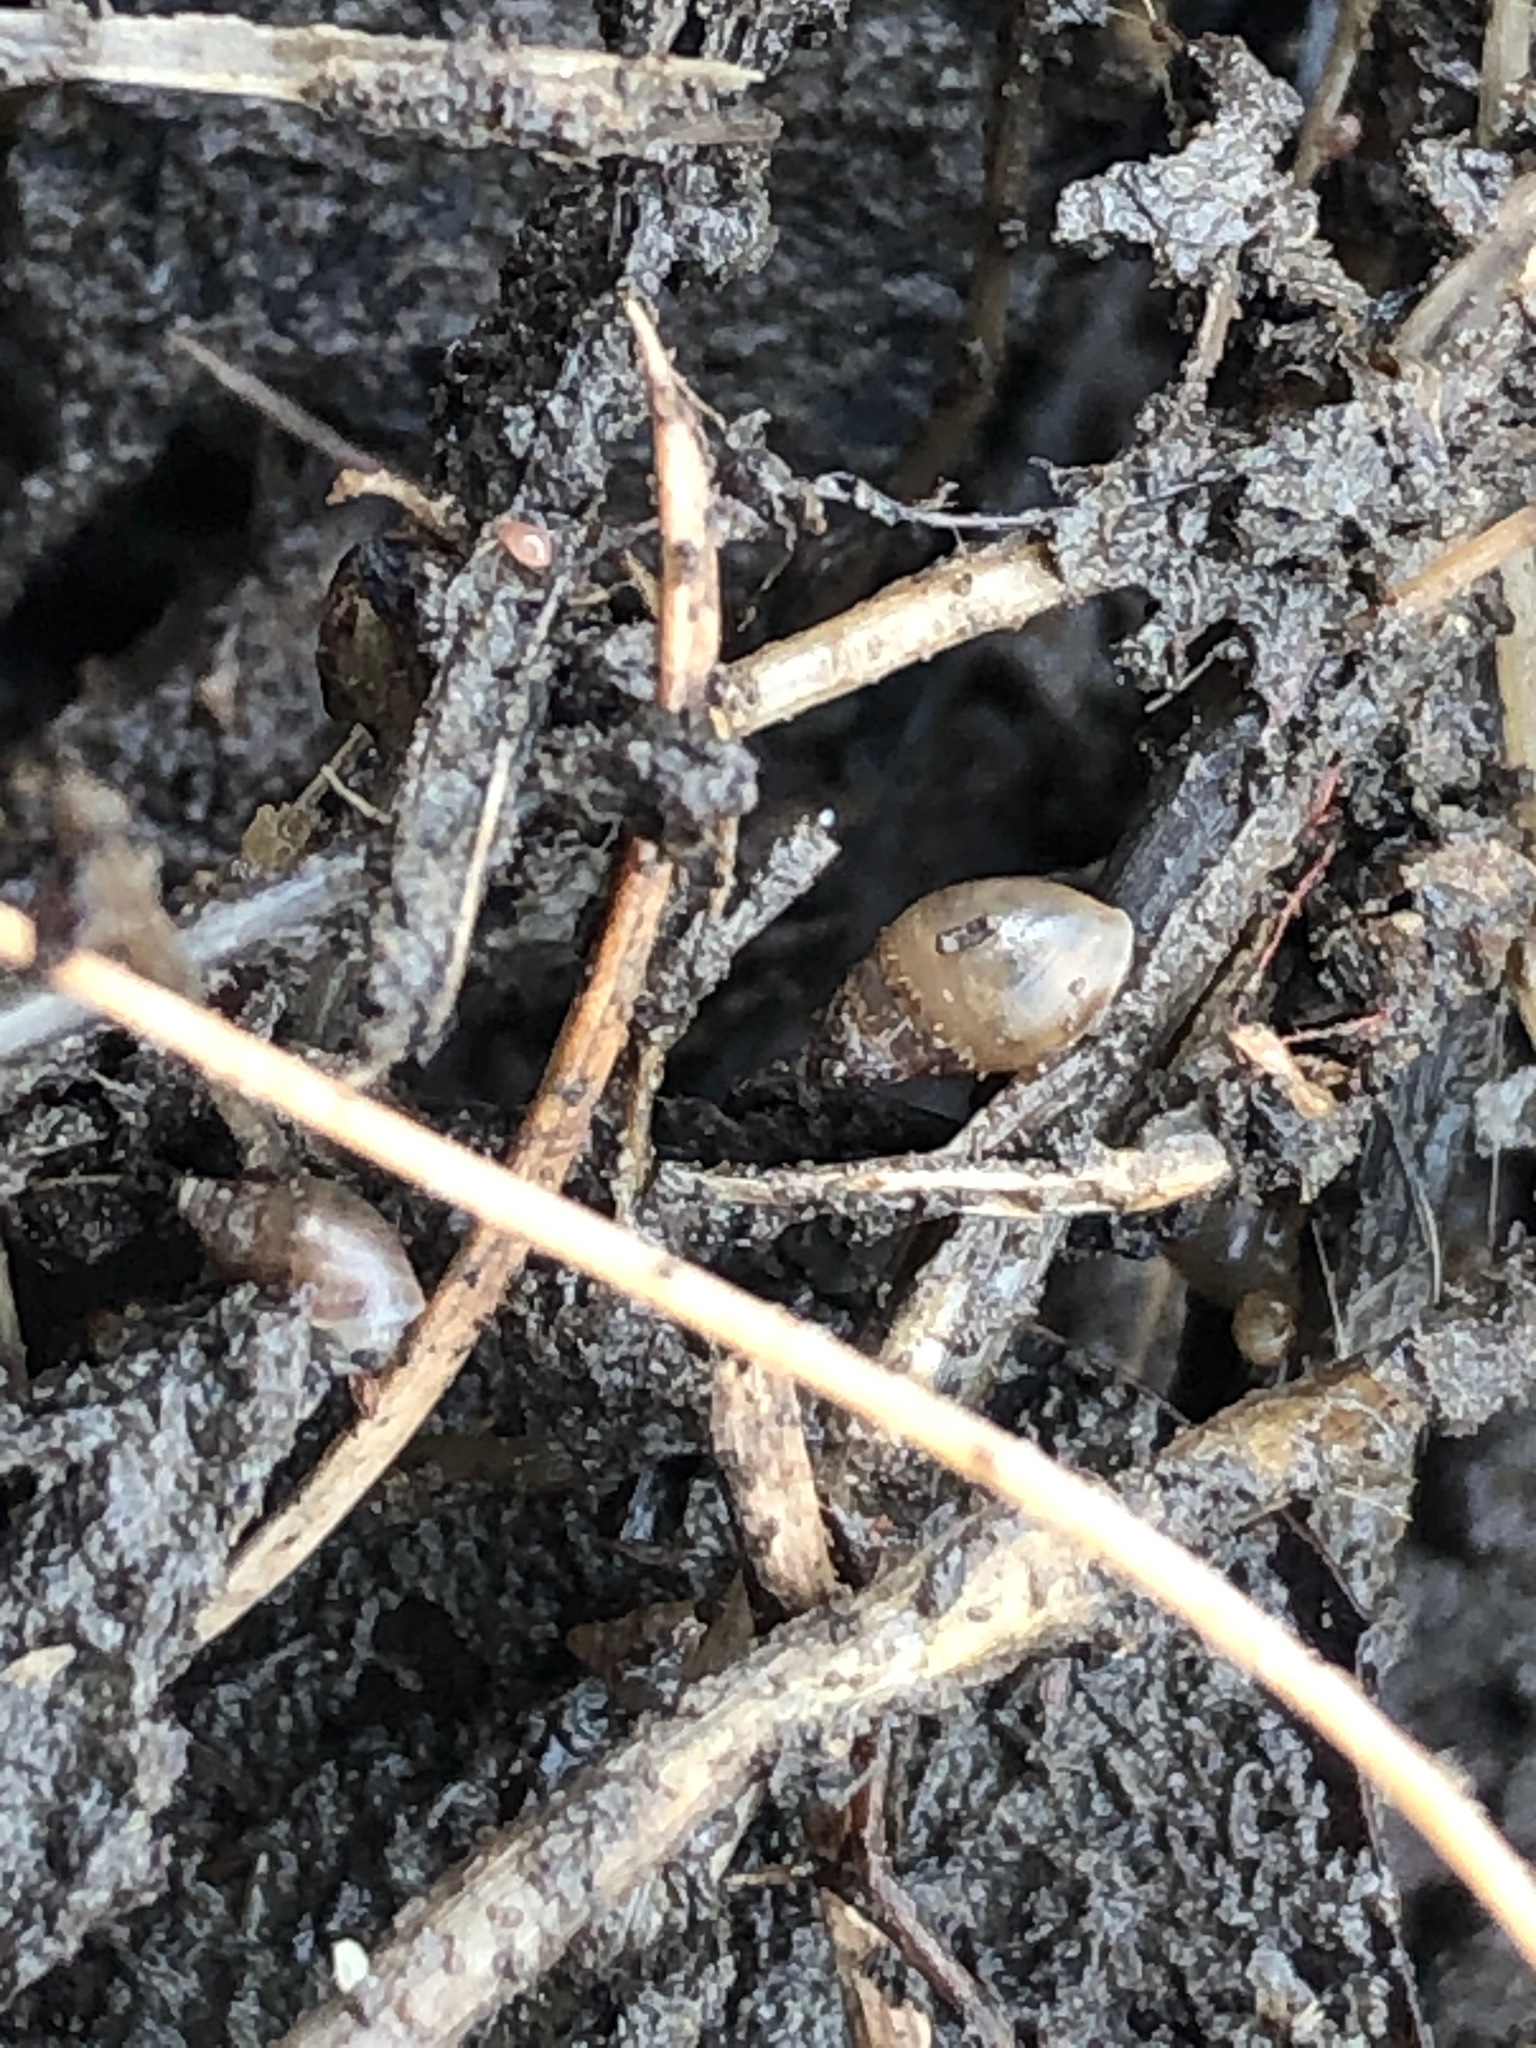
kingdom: Animalia
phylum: Mollusca
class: Gastropoda
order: Ellobiida
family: Ellobiidae
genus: Myosotella
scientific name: Myosotella myosotis
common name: Mouse-eared snail
